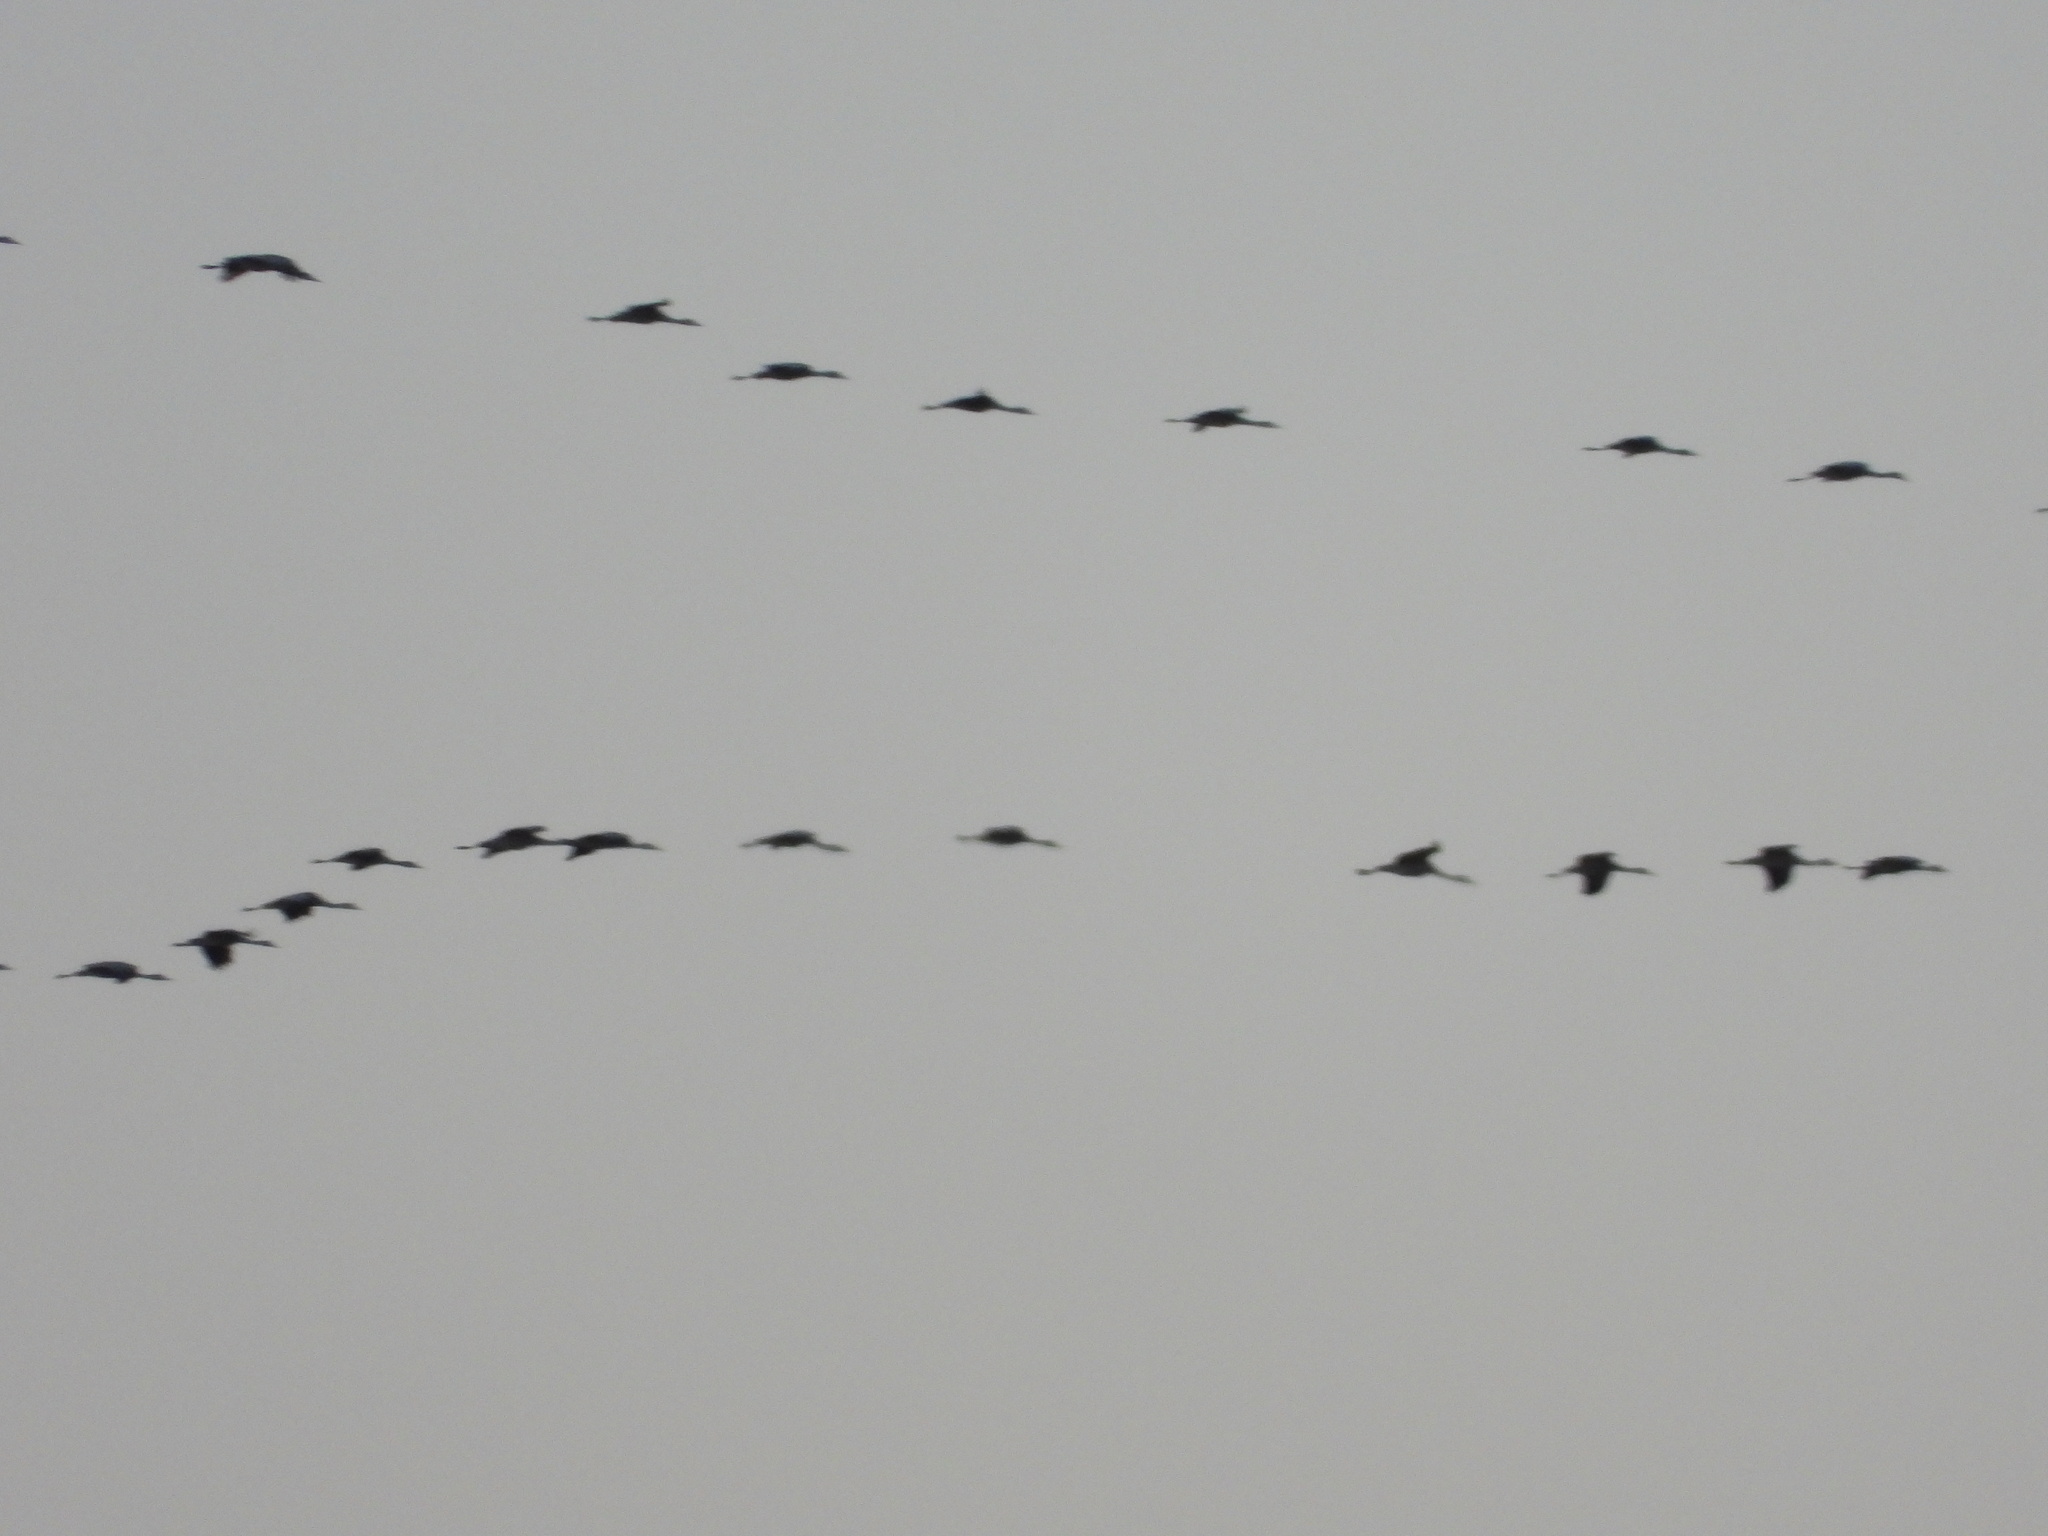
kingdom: Animalia
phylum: Chordata
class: Aves
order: Gruiformes
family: Gruidae
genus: Grus
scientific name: Grus canadensis
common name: Sandhill crane
